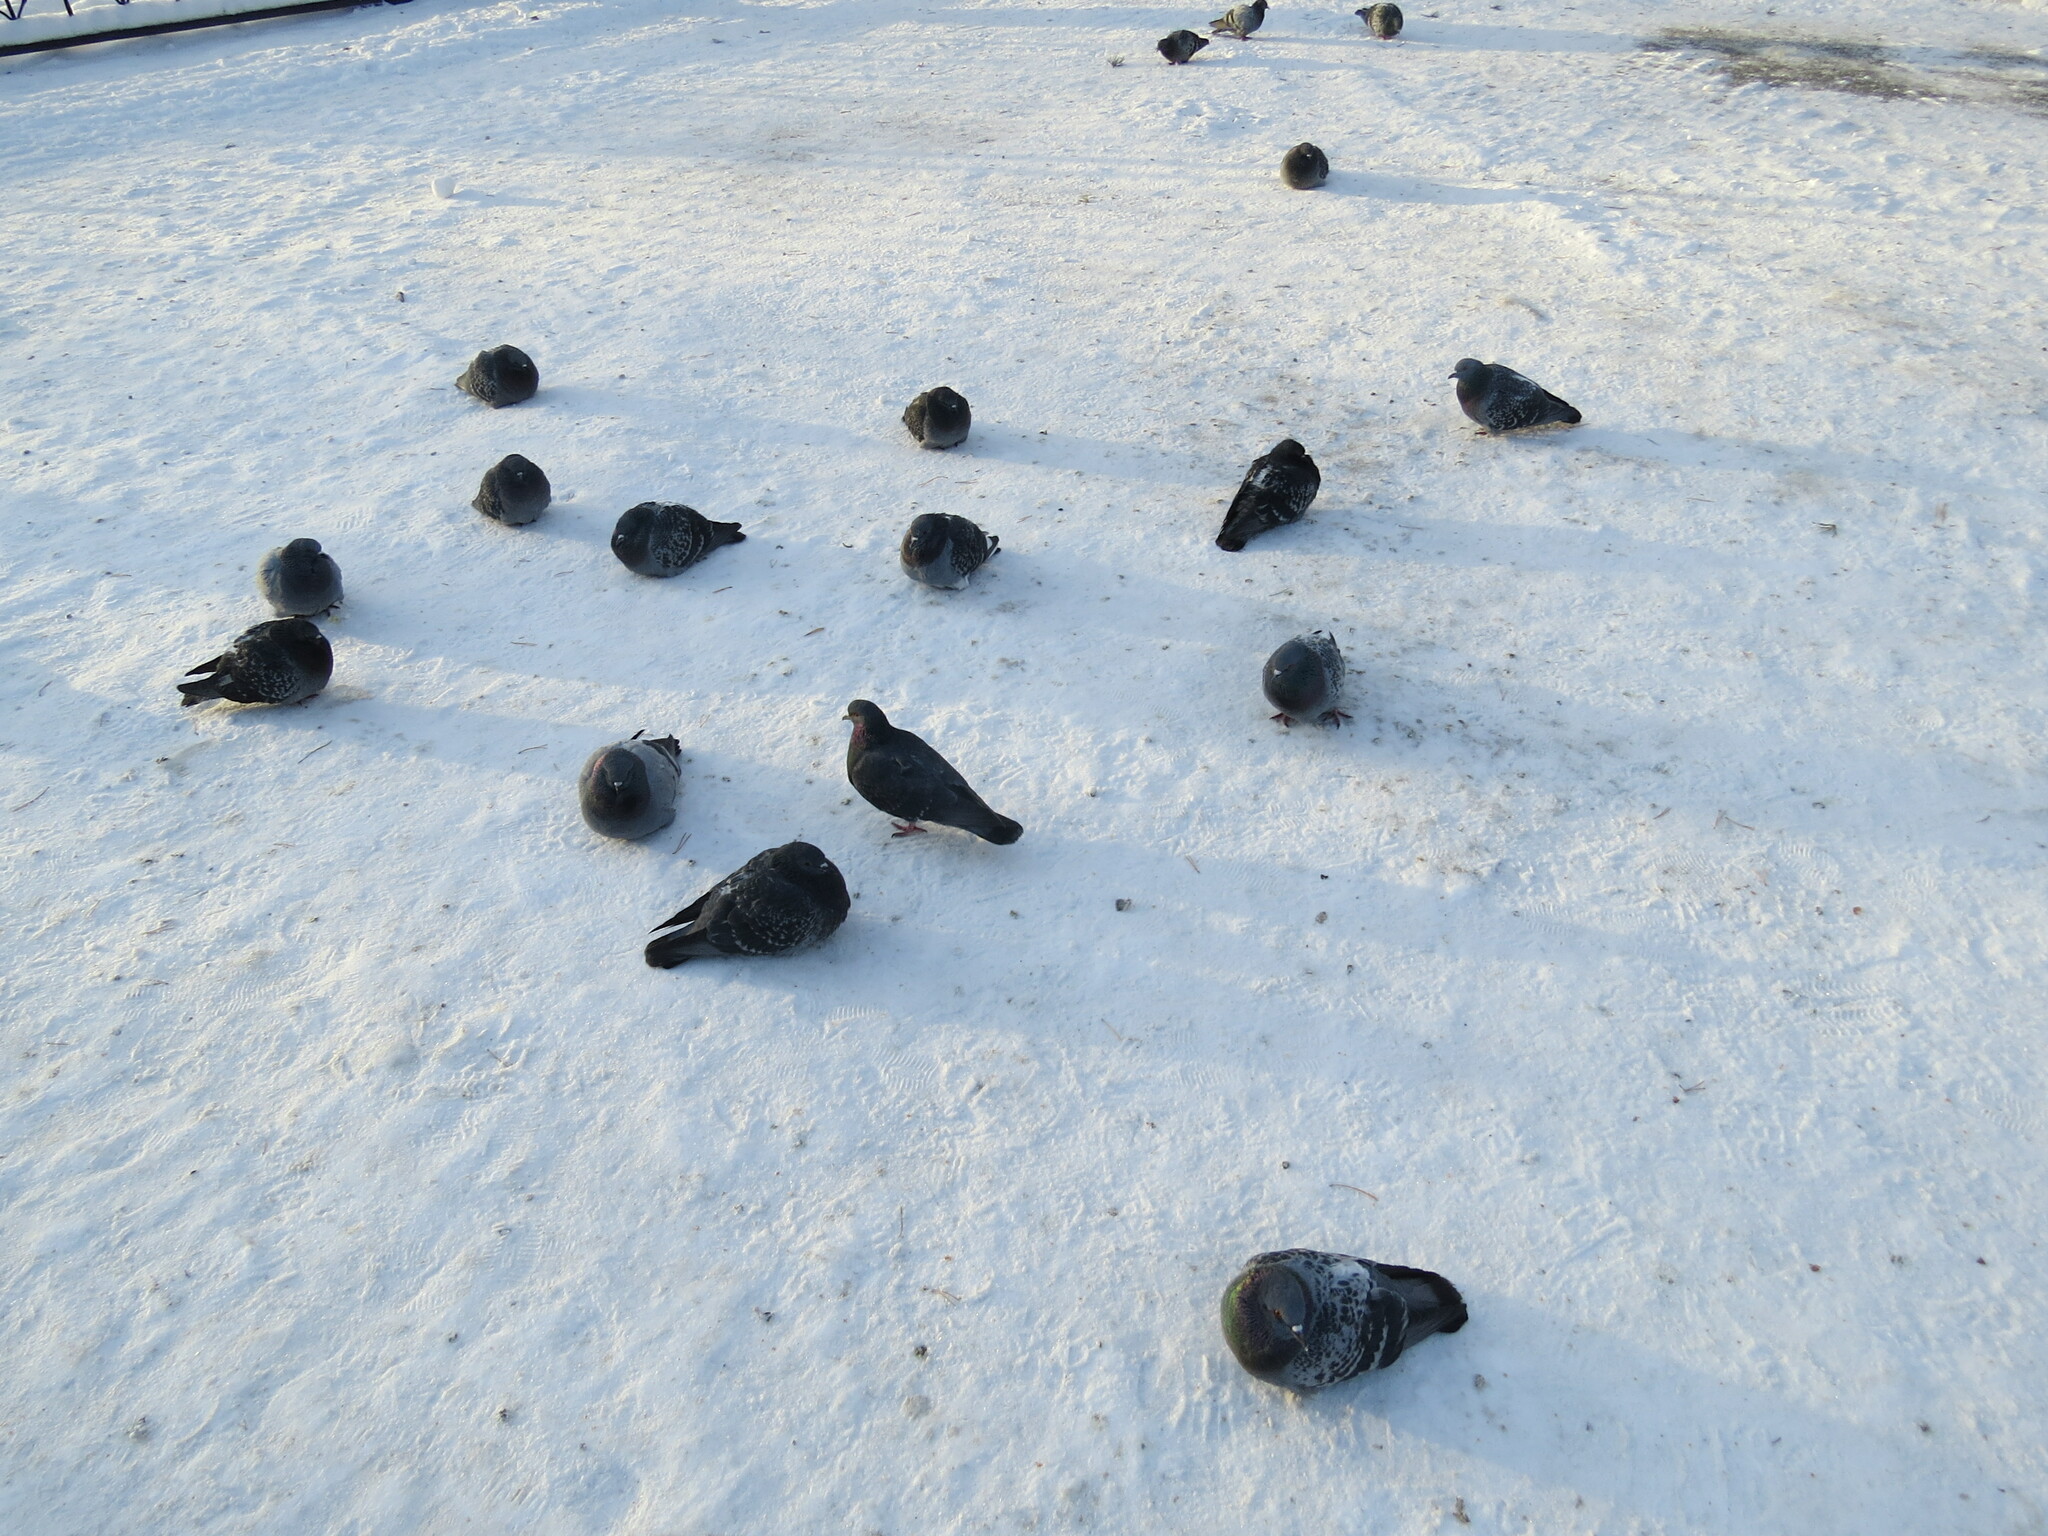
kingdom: Animalia
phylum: Chordata
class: Aves
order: Columbiformes
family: Columbidae
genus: Columba
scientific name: Columba livia
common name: Rock pigeon
